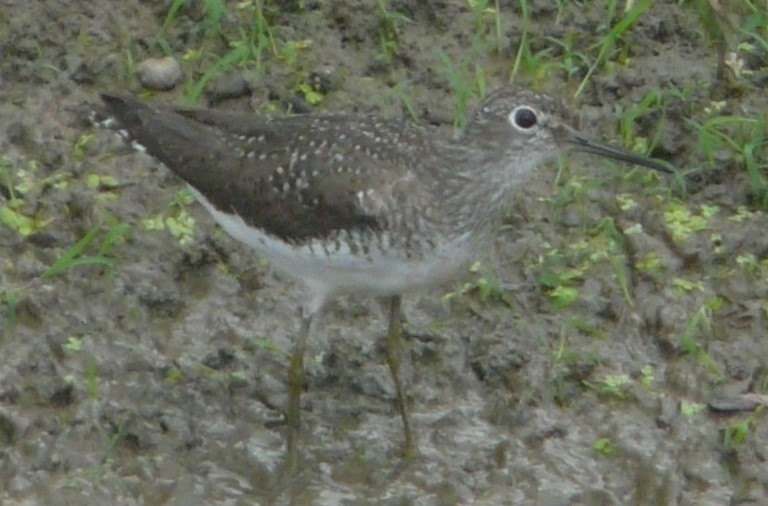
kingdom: Animalia
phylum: Chordata
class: Aves
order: Charadriiformes
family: Scolopacidae
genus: Tringa
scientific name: Tringa solitaria
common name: Solitary sandpiper
